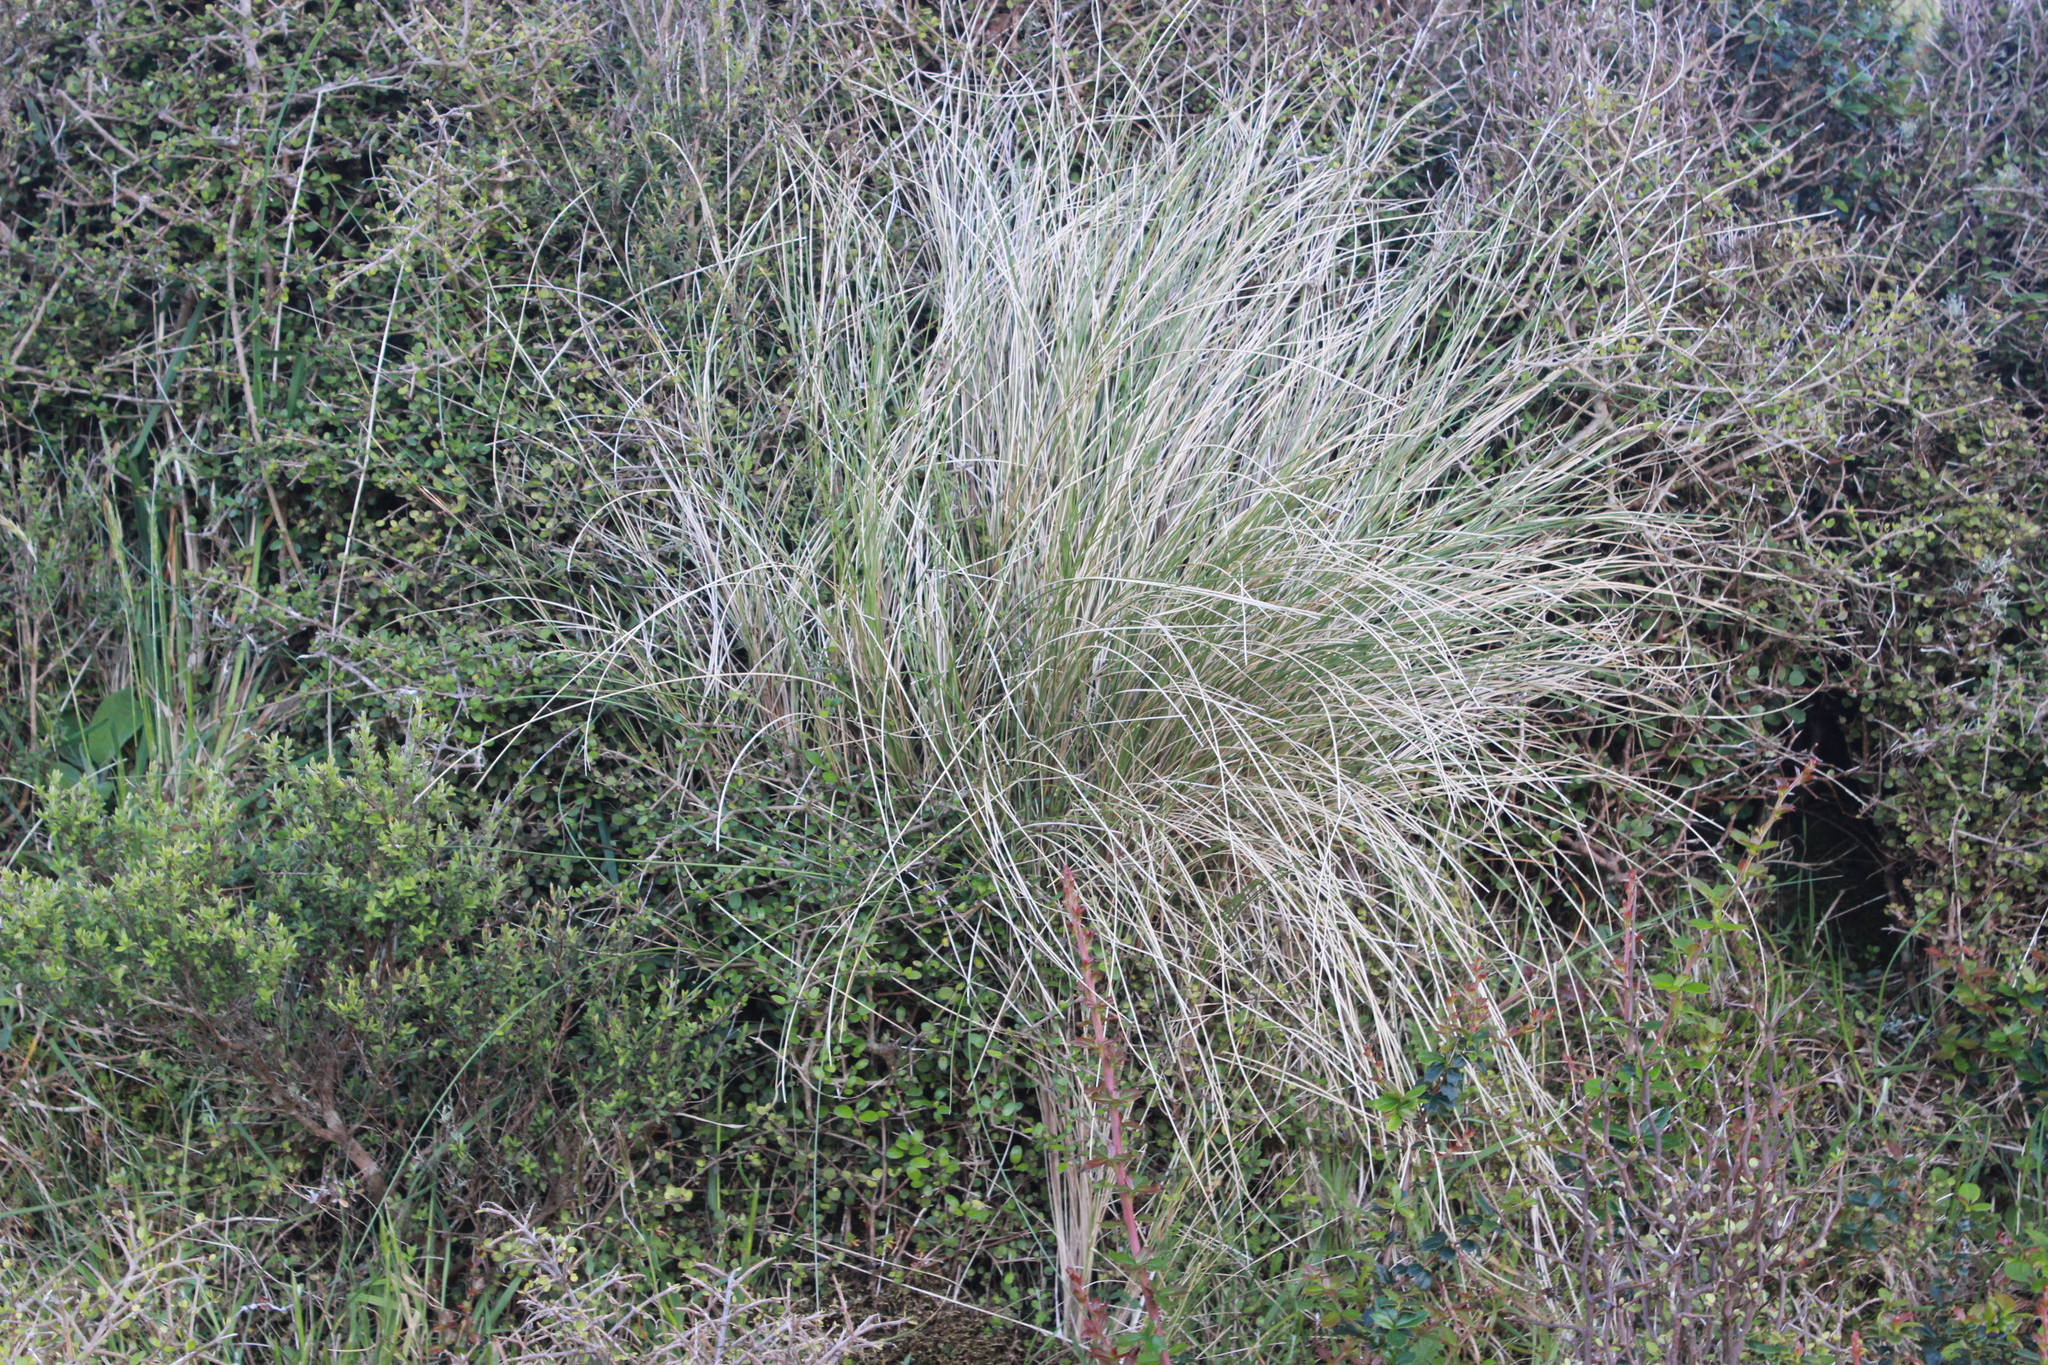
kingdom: Plantae
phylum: Tracheophyta
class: Liliopsida
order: Poales
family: Poaceae
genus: Poa
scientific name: Poa cita
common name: Silver tussock
